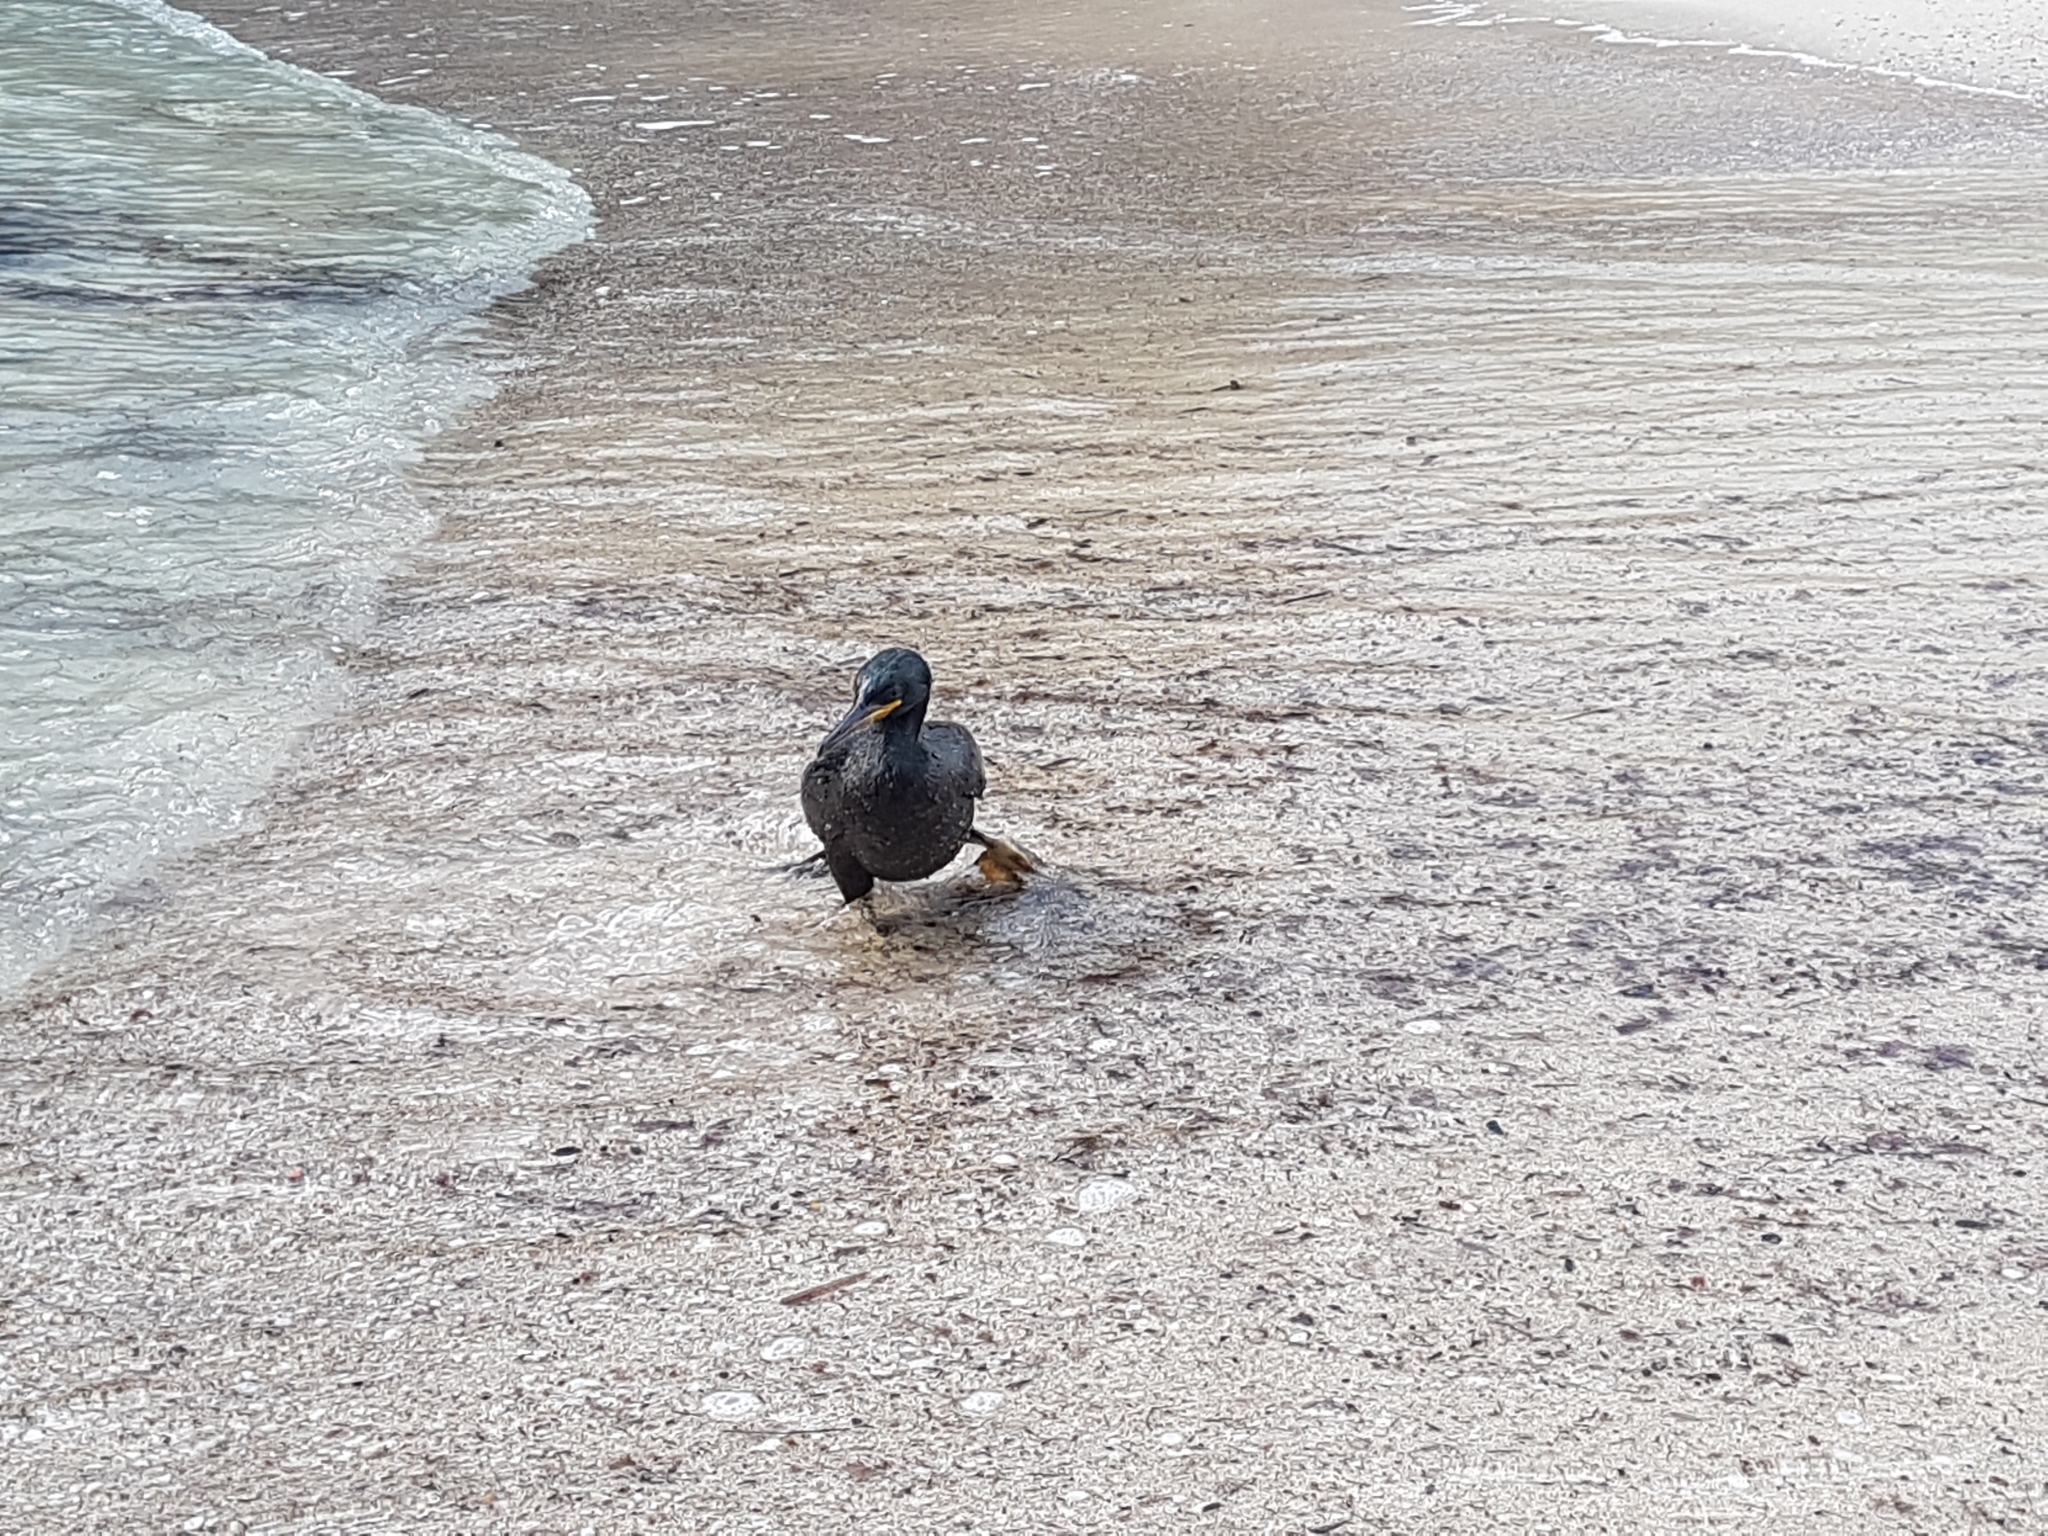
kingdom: Animalia
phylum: Chordata
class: Aves
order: Suliformes
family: Phalacrocoracidae
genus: Phalacrocorax
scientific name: Phalacrocorax aristotelis
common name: European shag
